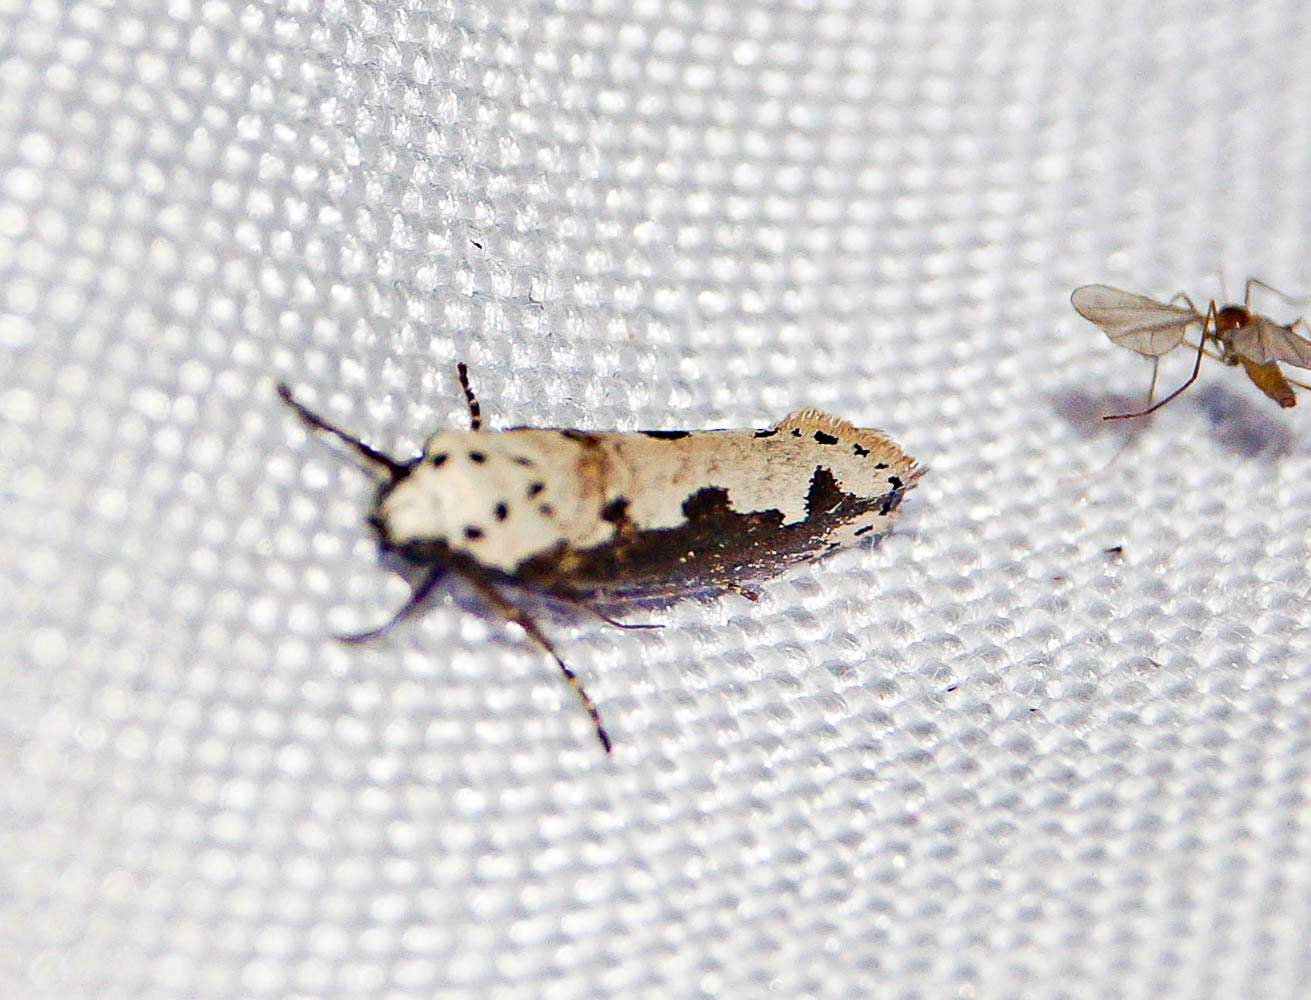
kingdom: Animalia
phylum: Arthropoda
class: Insecta
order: Lepidoptera
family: Ethmiidae
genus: Ethmia
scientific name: Ethmia bipunctella
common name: Bordered ermel
